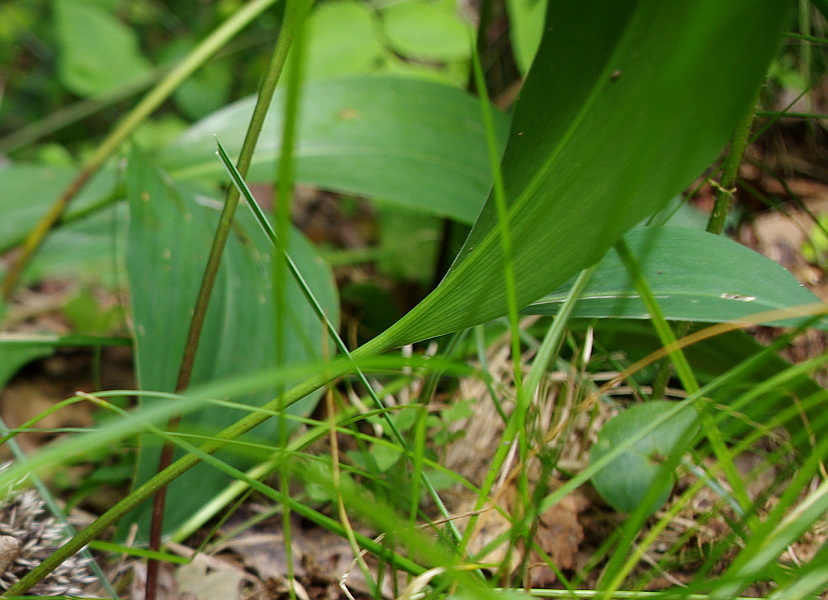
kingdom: Plantae
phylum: Tracheophyta
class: Liliopsida
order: Asparagales
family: Asparagaceae
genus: Convallaria
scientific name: Convallaria majalis
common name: Lily-of-the-valley
